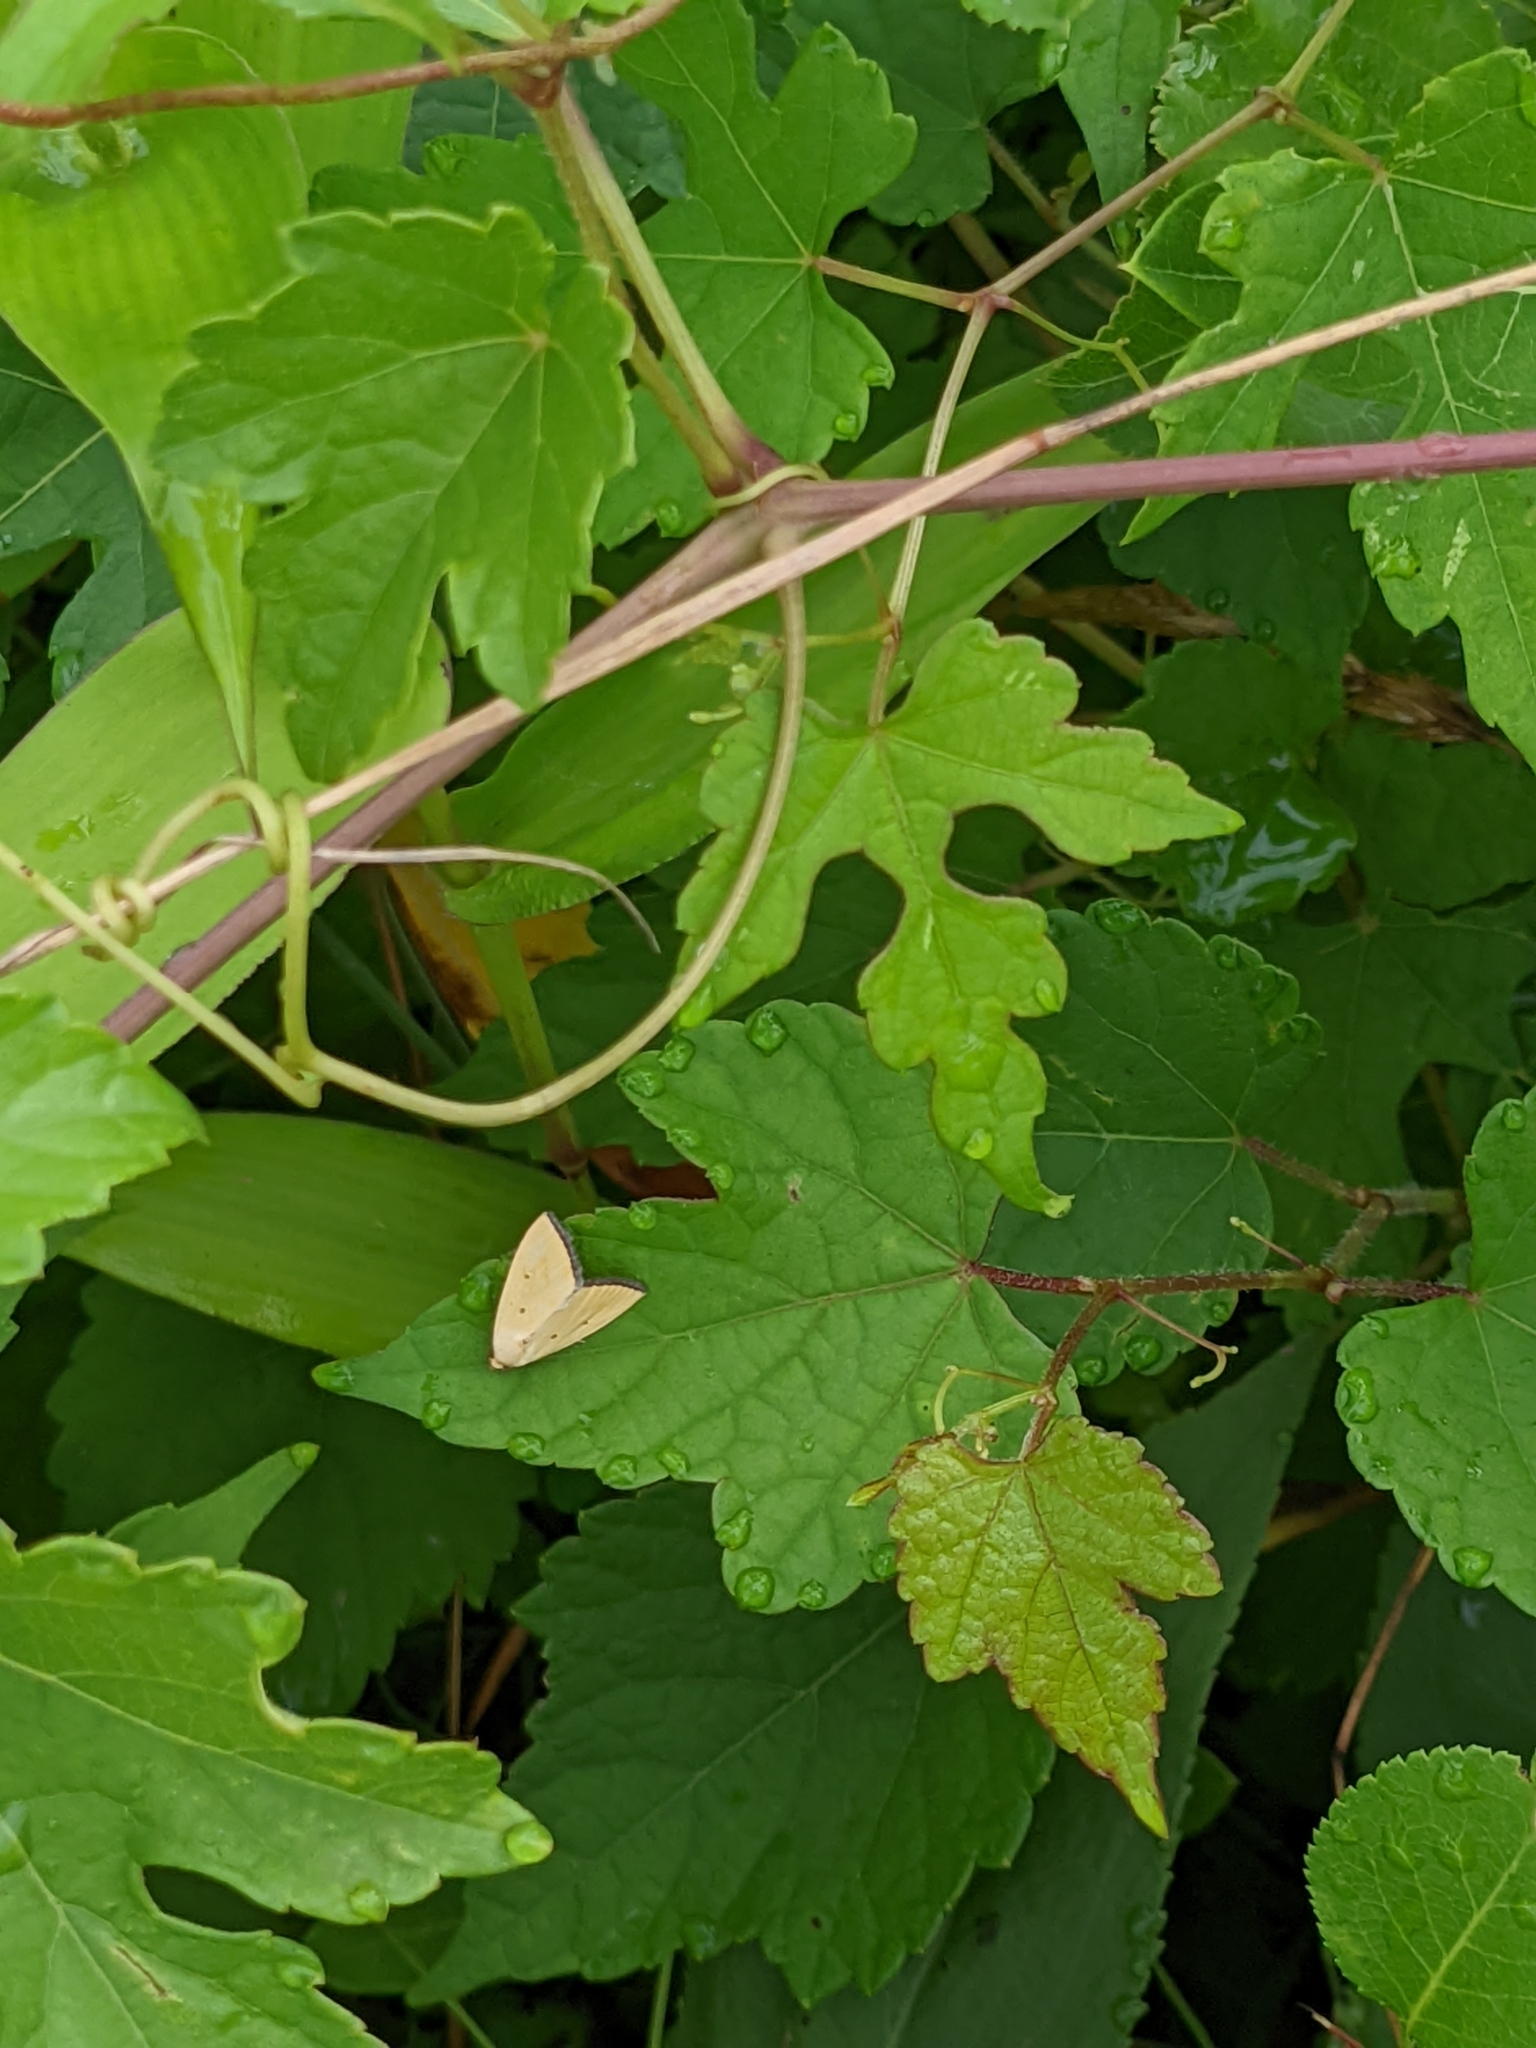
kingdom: Animalia
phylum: Arthropoda
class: Insecta
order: Lepidoptera
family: Noctuidae
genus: Marimatha
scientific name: Marimatha nigrofimbria
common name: Black-bordered lemon moth
